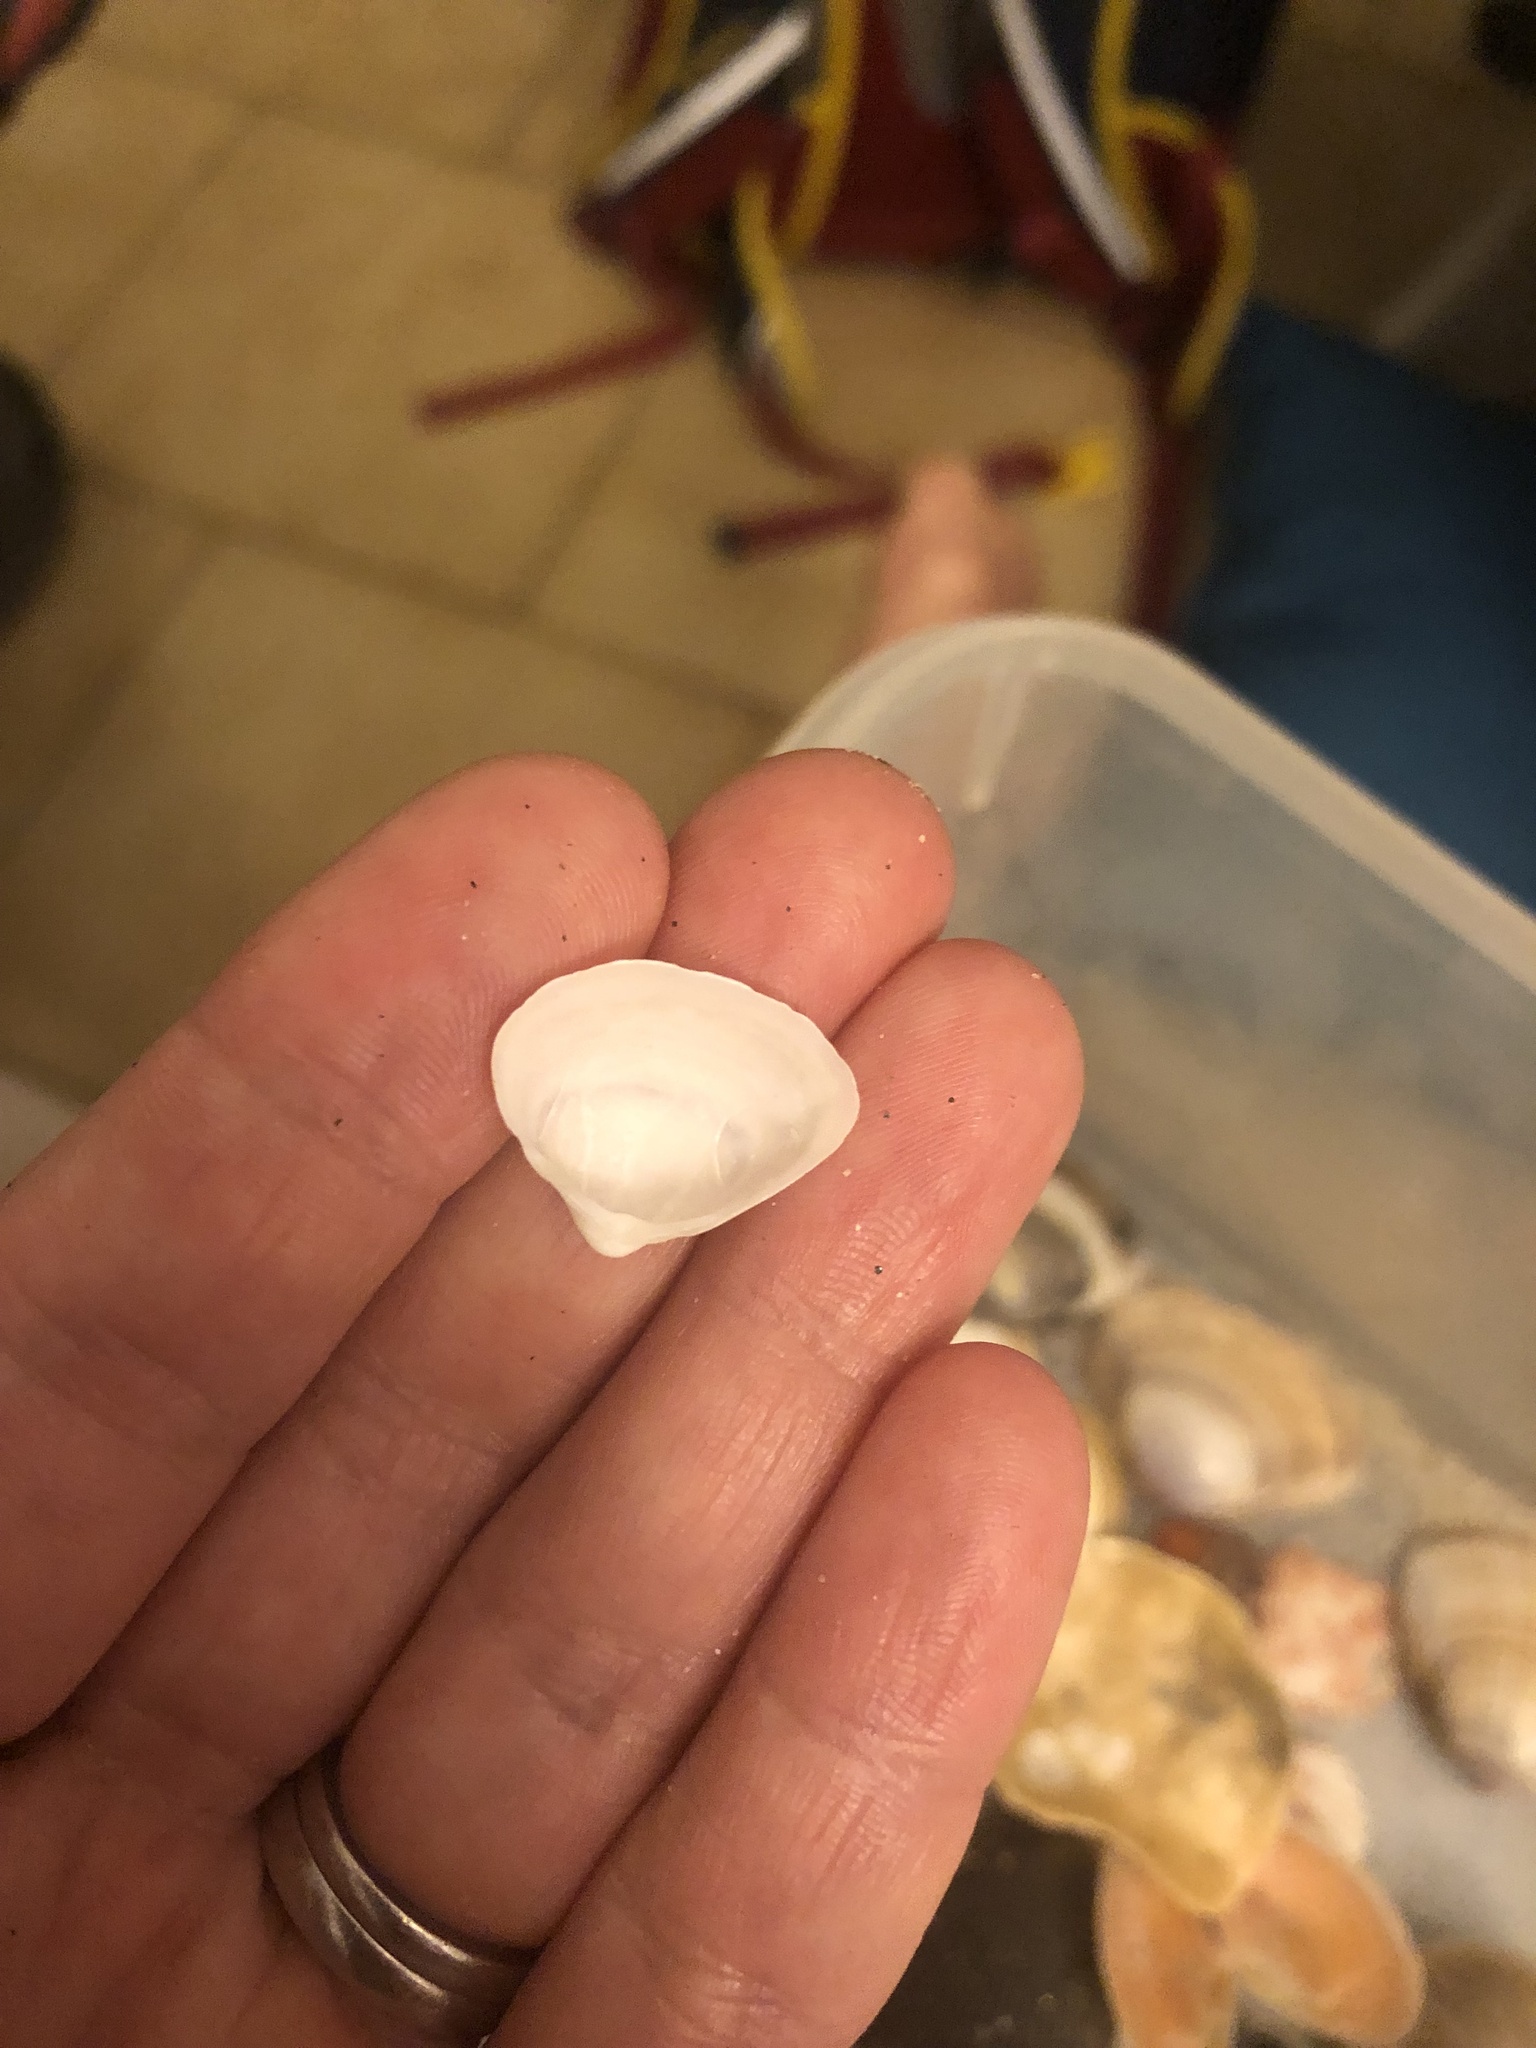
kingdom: Animalia
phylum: Mollusca
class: Bivalvia
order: Venerida
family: Mactridae
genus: Spisula
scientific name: Spisula subtruncata
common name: Cut trough shell
